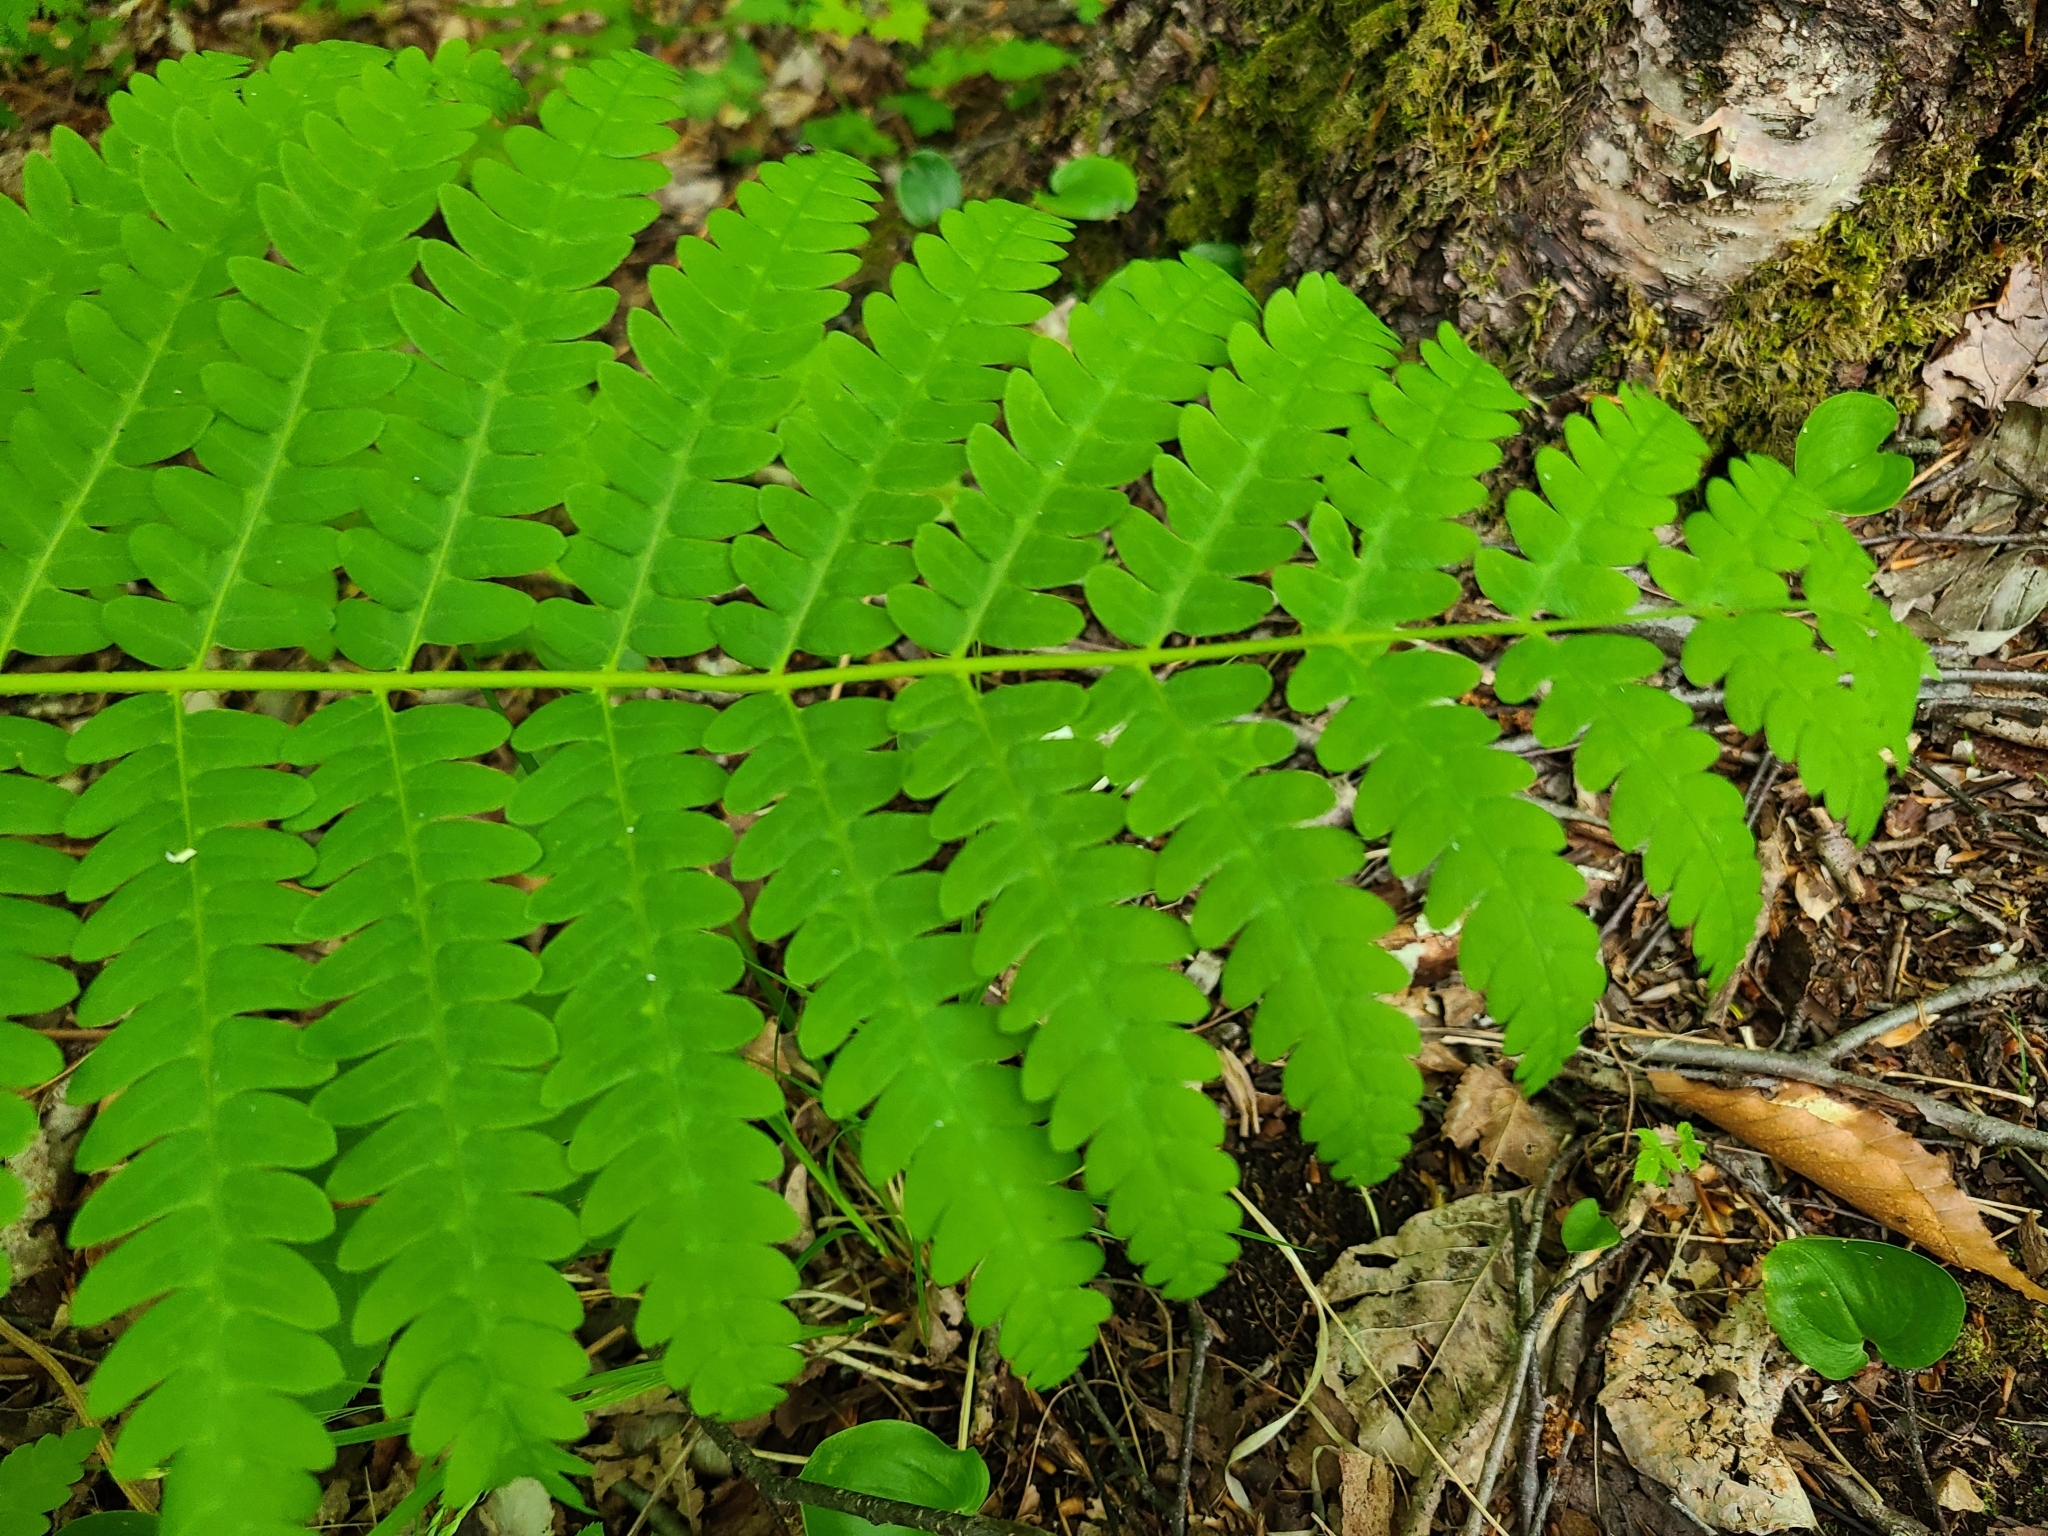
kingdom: Plantae
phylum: Tracheophyta
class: Polypodiopsida
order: Osmundales
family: Osmundaceae
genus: Claytosmunda
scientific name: Claytosmunda claytoniana
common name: Clayton's fern
